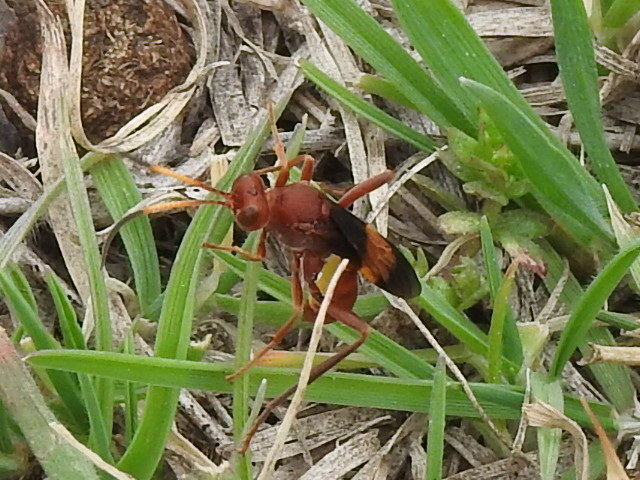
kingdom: Animalia
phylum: Arthropoda
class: Insecta
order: Hymenoptera
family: Ichneumonidae
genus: Trogomorpha
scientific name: Trogomorpha arrogans
